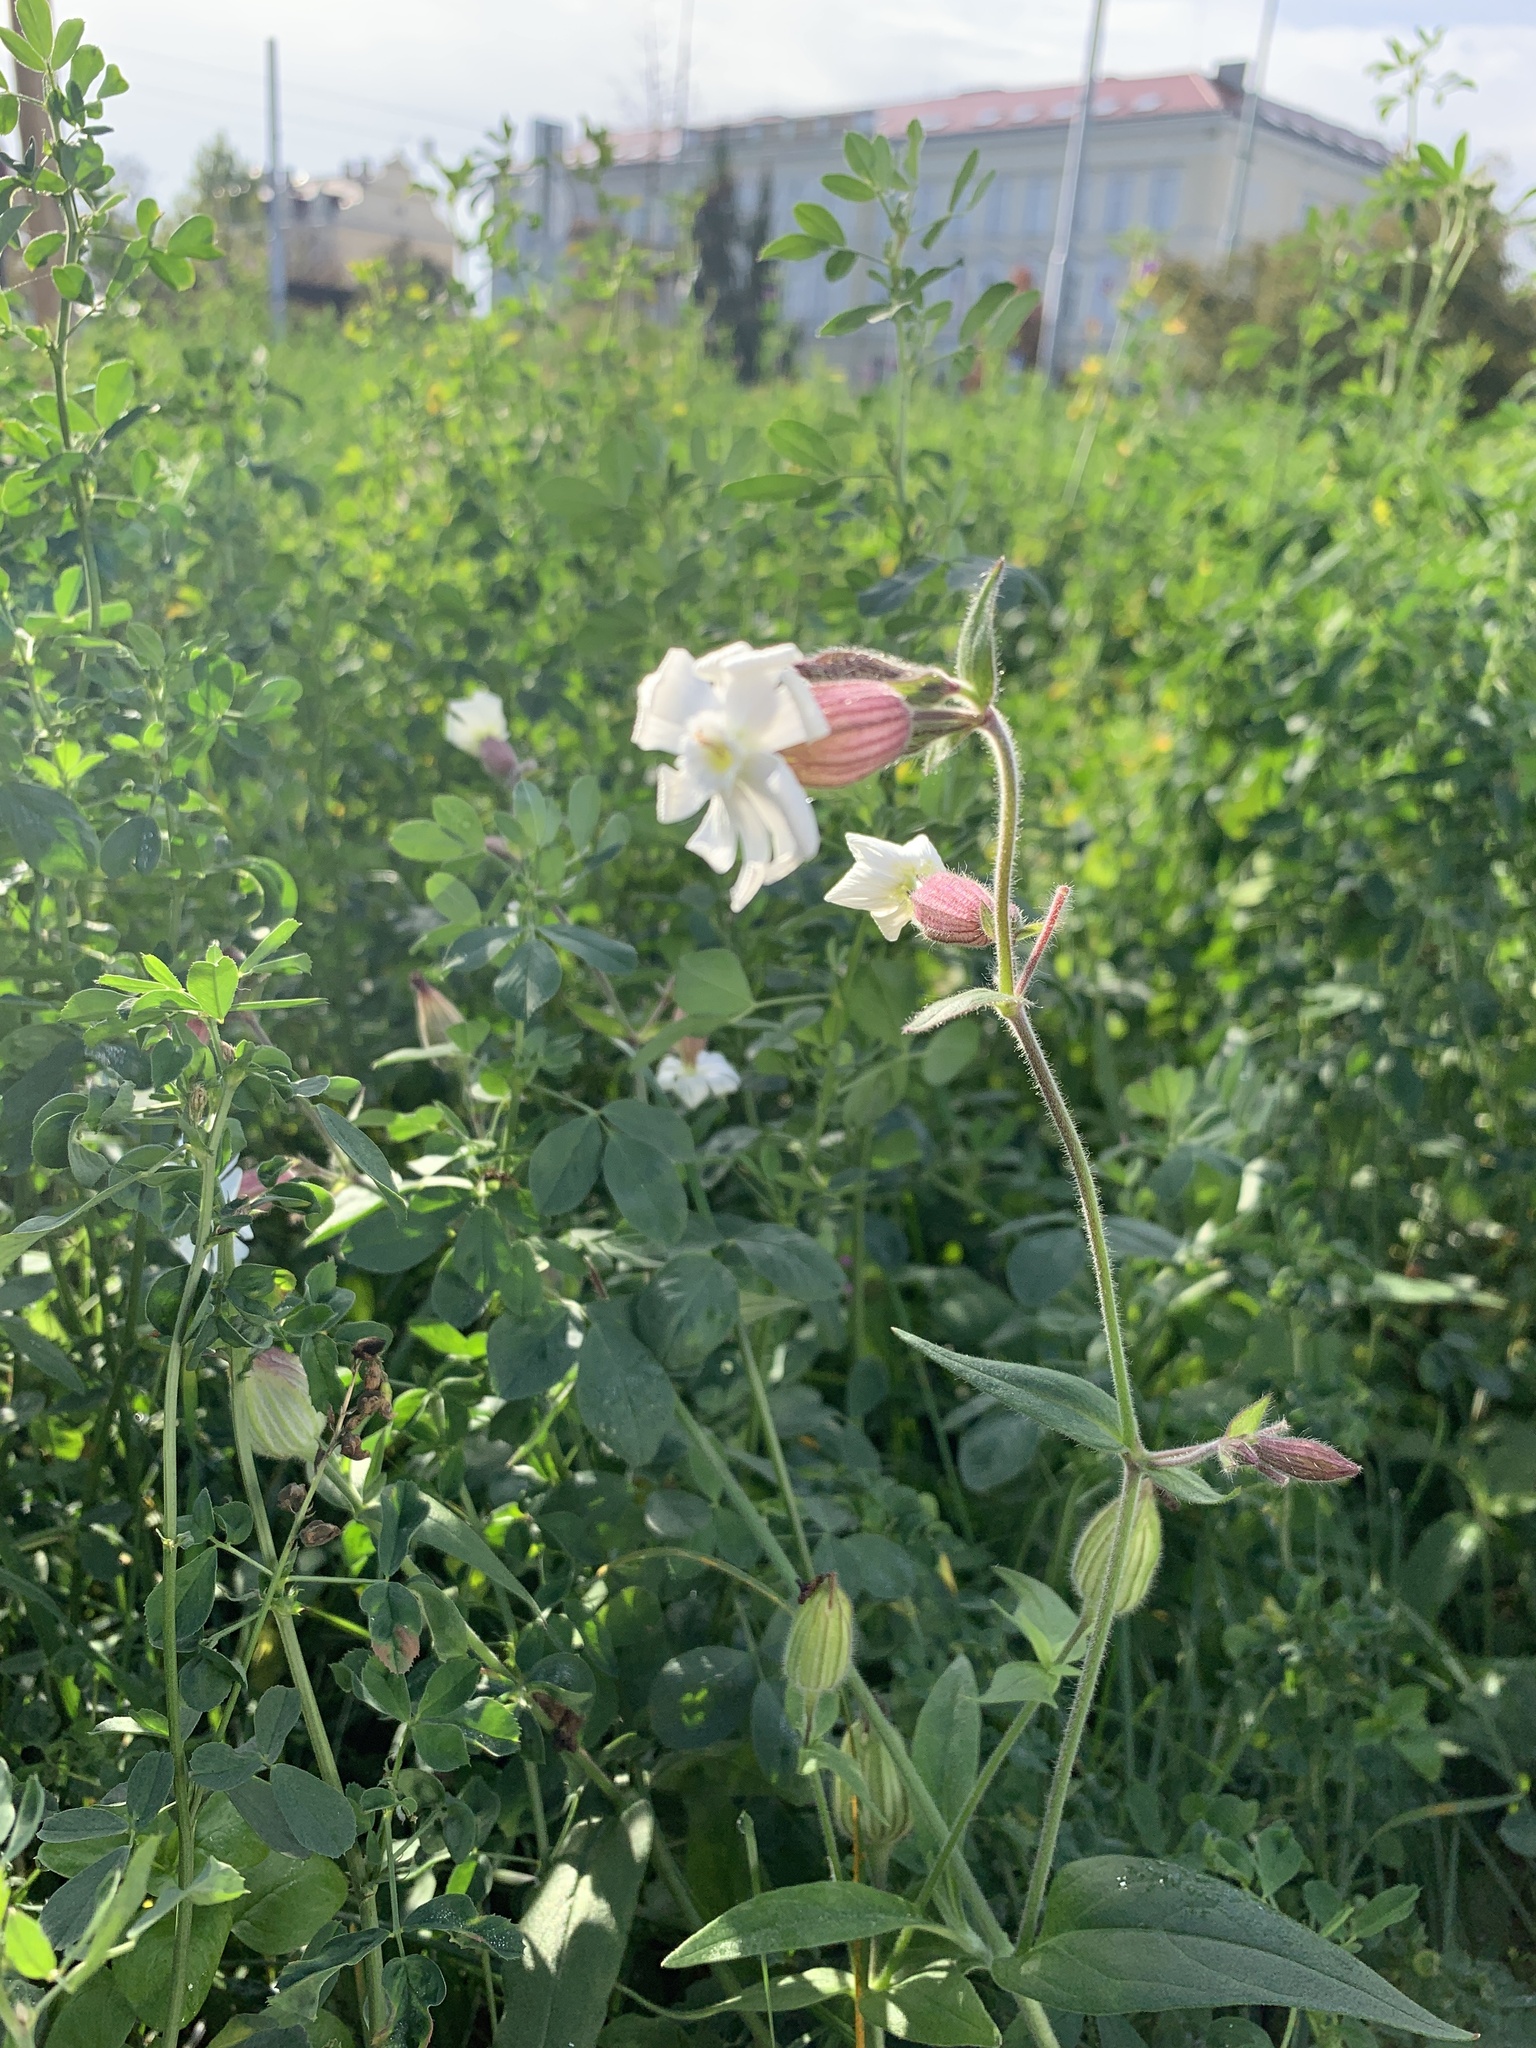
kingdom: Plantae
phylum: Tracheophyta
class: Magnoliopsida
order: Caryophyllales
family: Caryophyllaceae
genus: Silene
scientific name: Silene latifolia
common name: White campion
